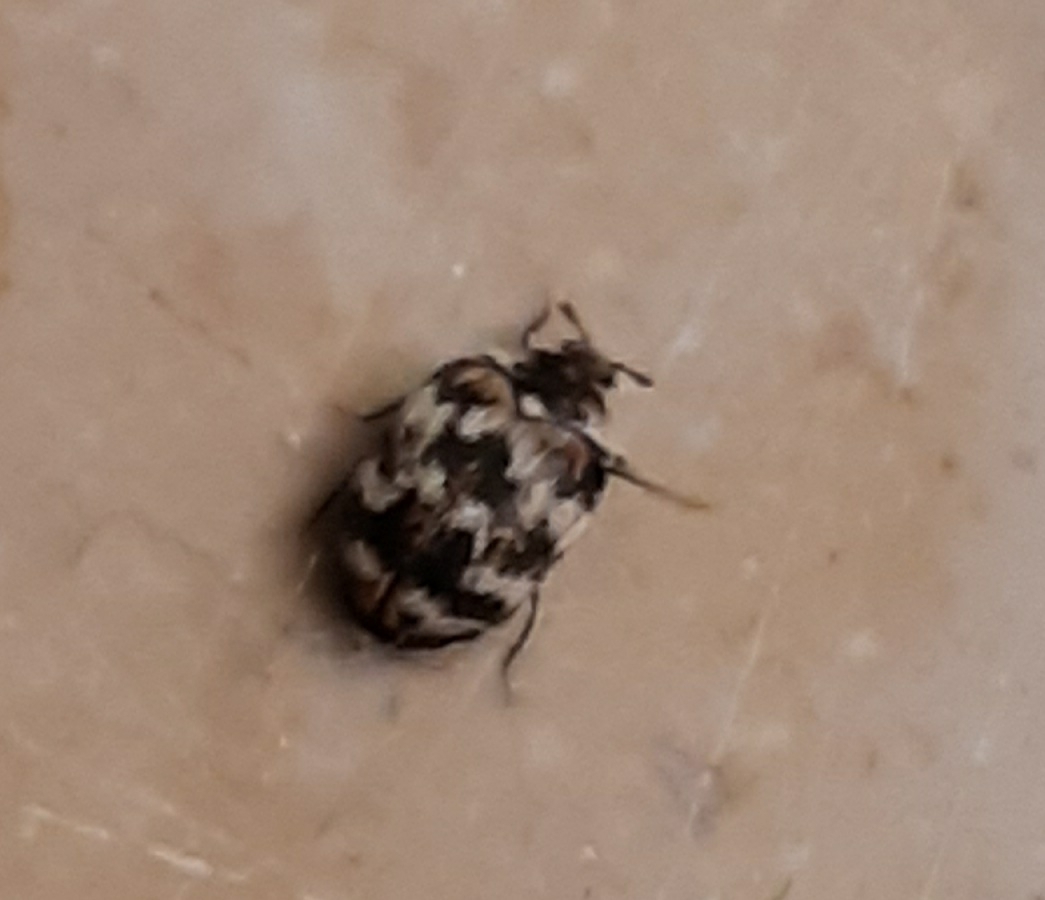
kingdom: Animalia
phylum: Arthropoda
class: Insecta
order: Coleoptera
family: Dermestidae
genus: Anthrenus
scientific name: Anthrenus verbasci
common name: Varied carpet beetle
